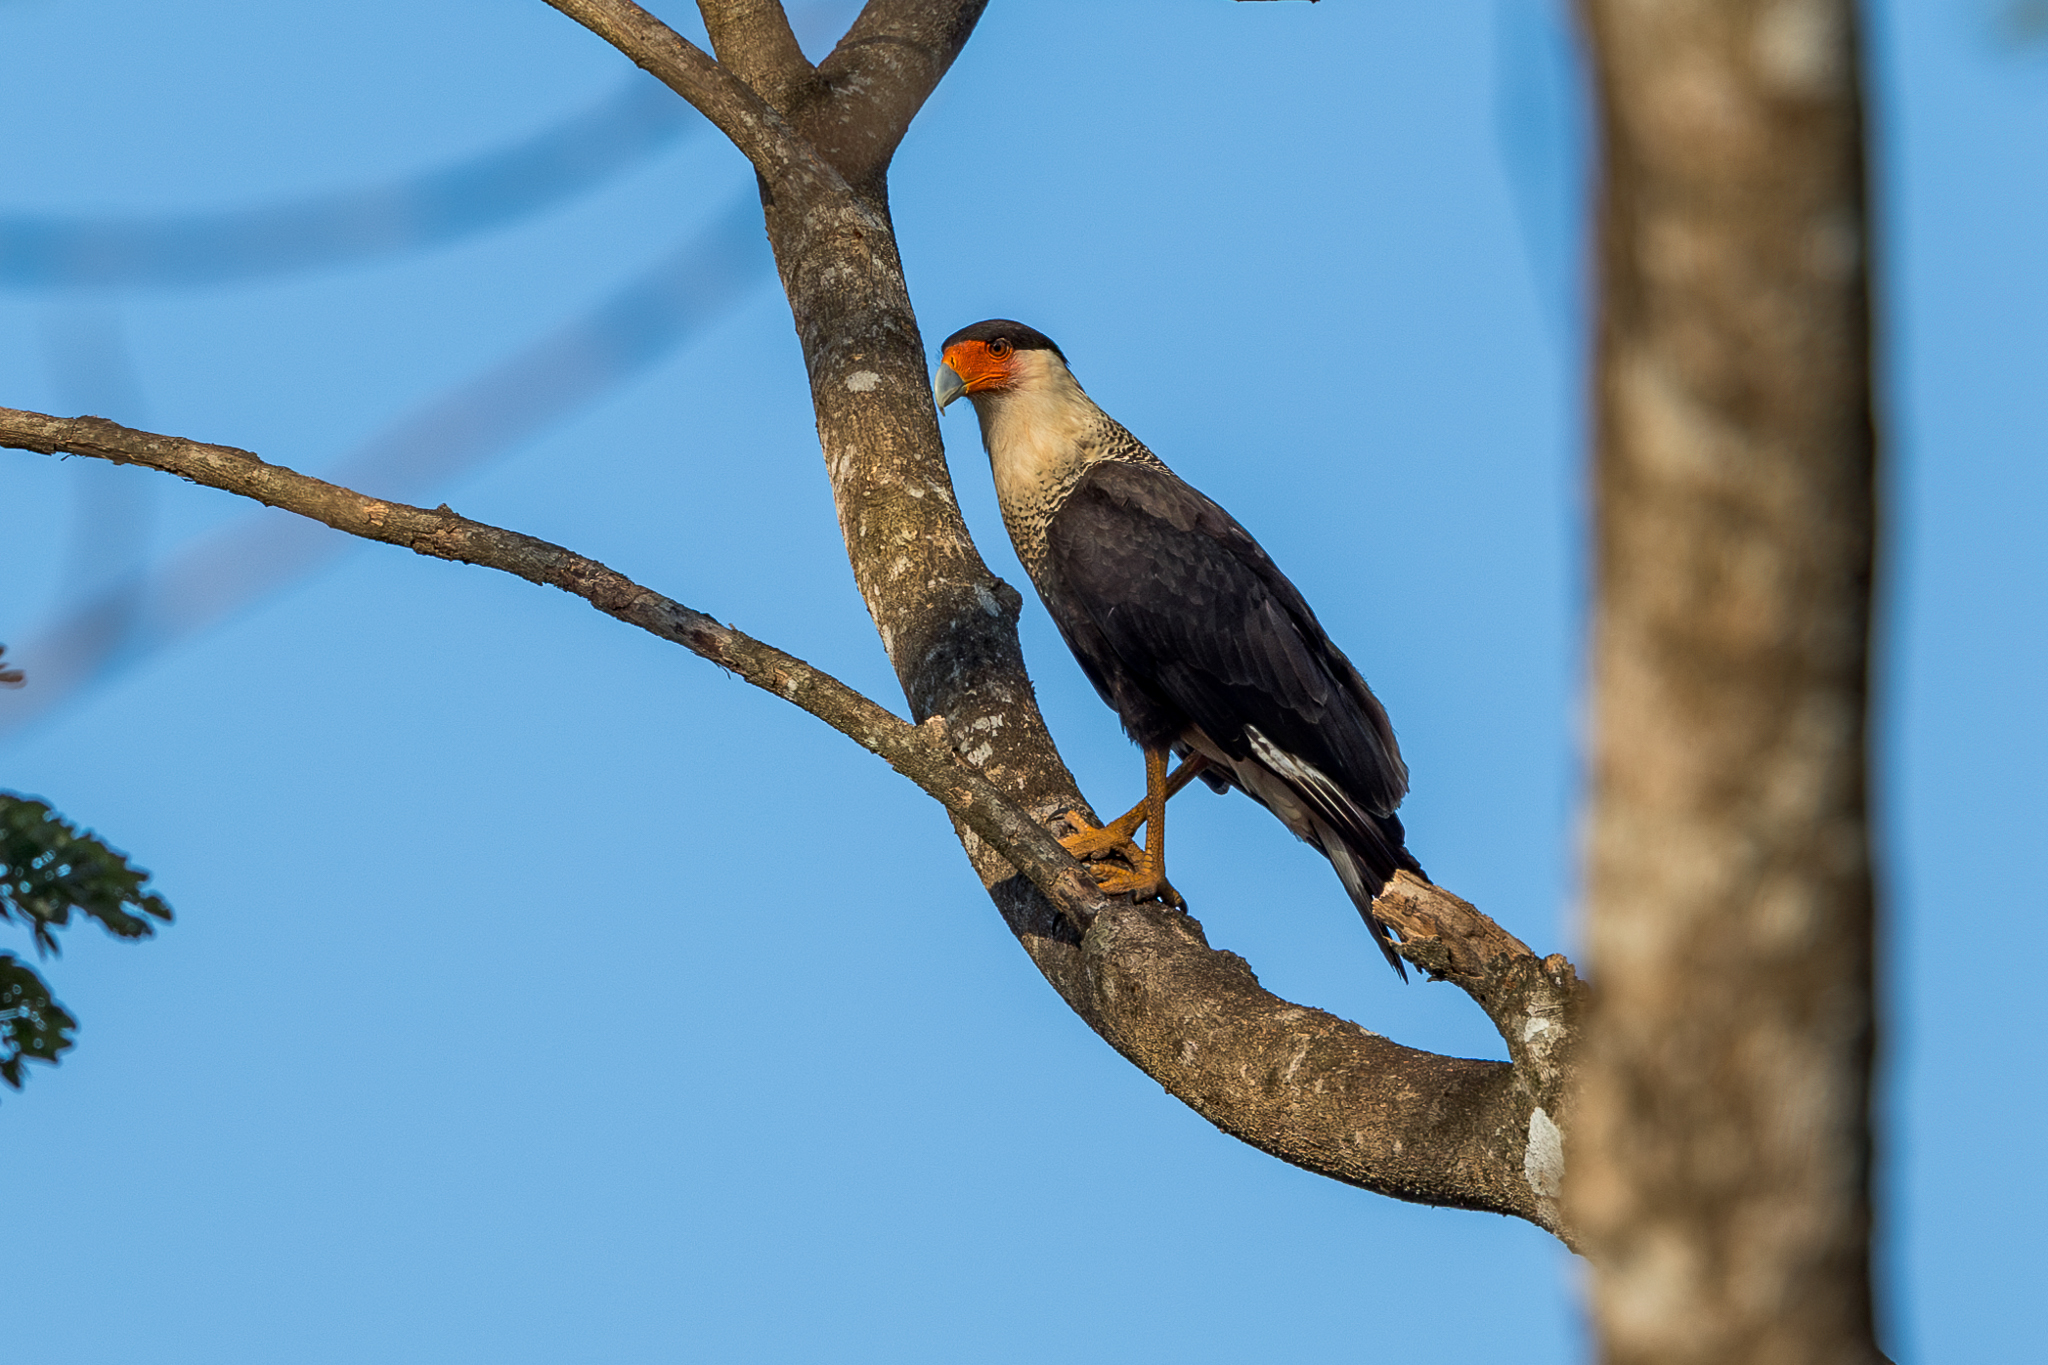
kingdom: Animalia
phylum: Chordata
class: Aves
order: Falconiformes
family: Falconidae
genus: Caracara
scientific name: Caracara plancus
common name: Southern caracara
